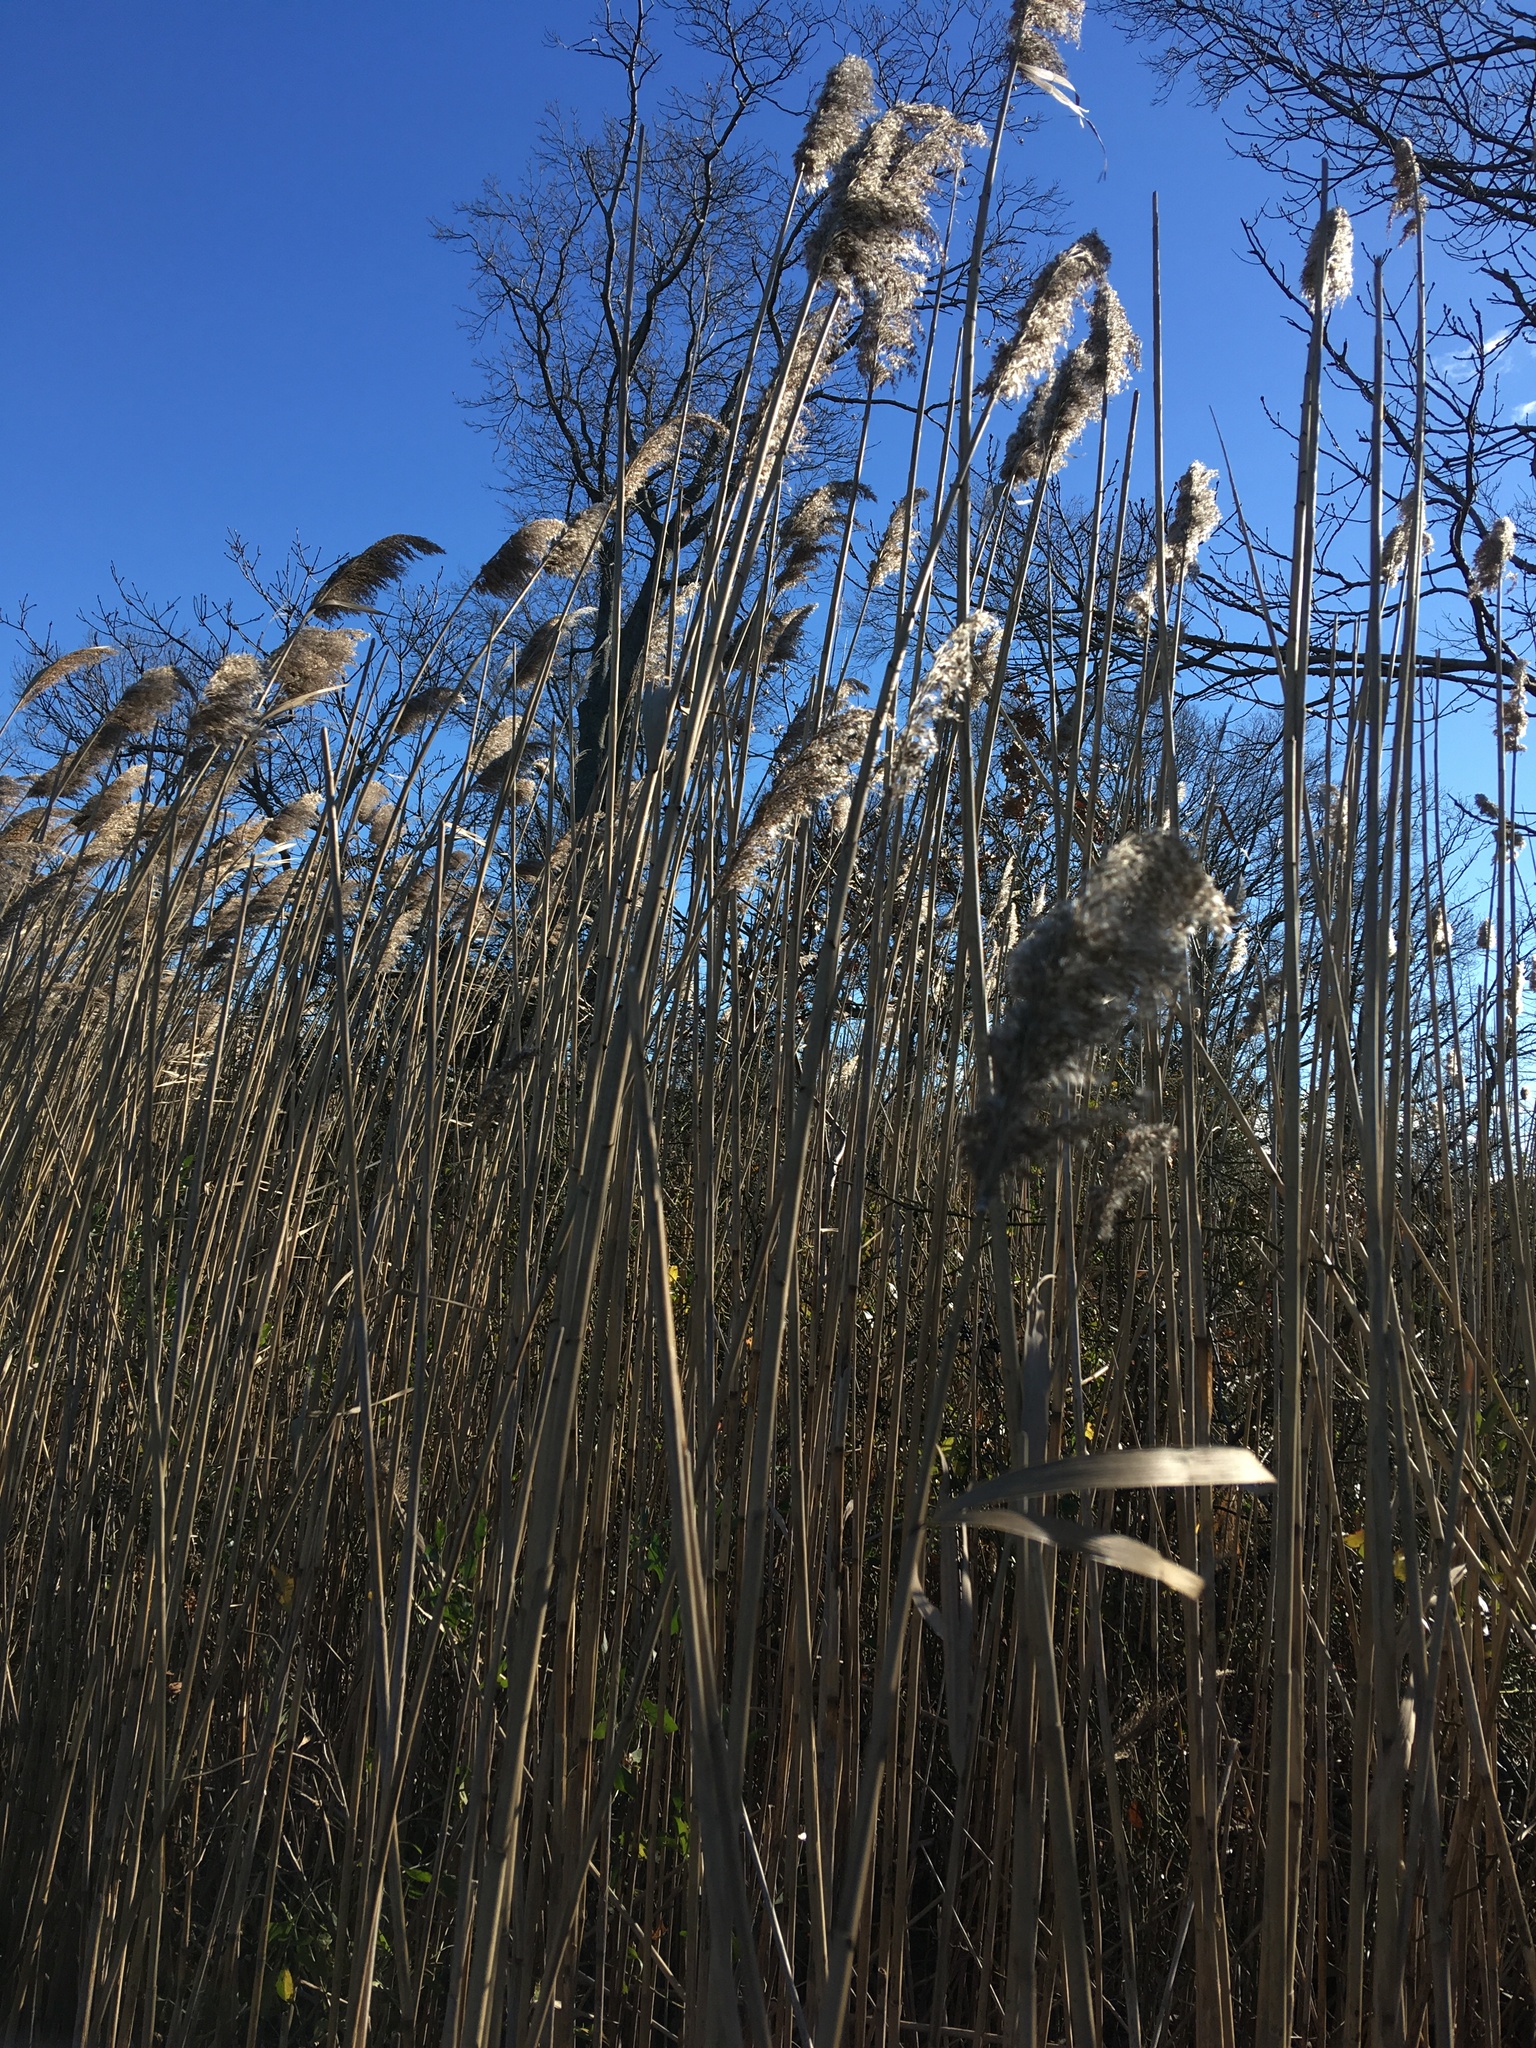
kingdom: Plantae
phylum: Tracheophyta
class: Liliopsida
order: Poales
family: Poaceae
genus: Phragmites
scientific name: Phragmites australis
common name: Common reed
